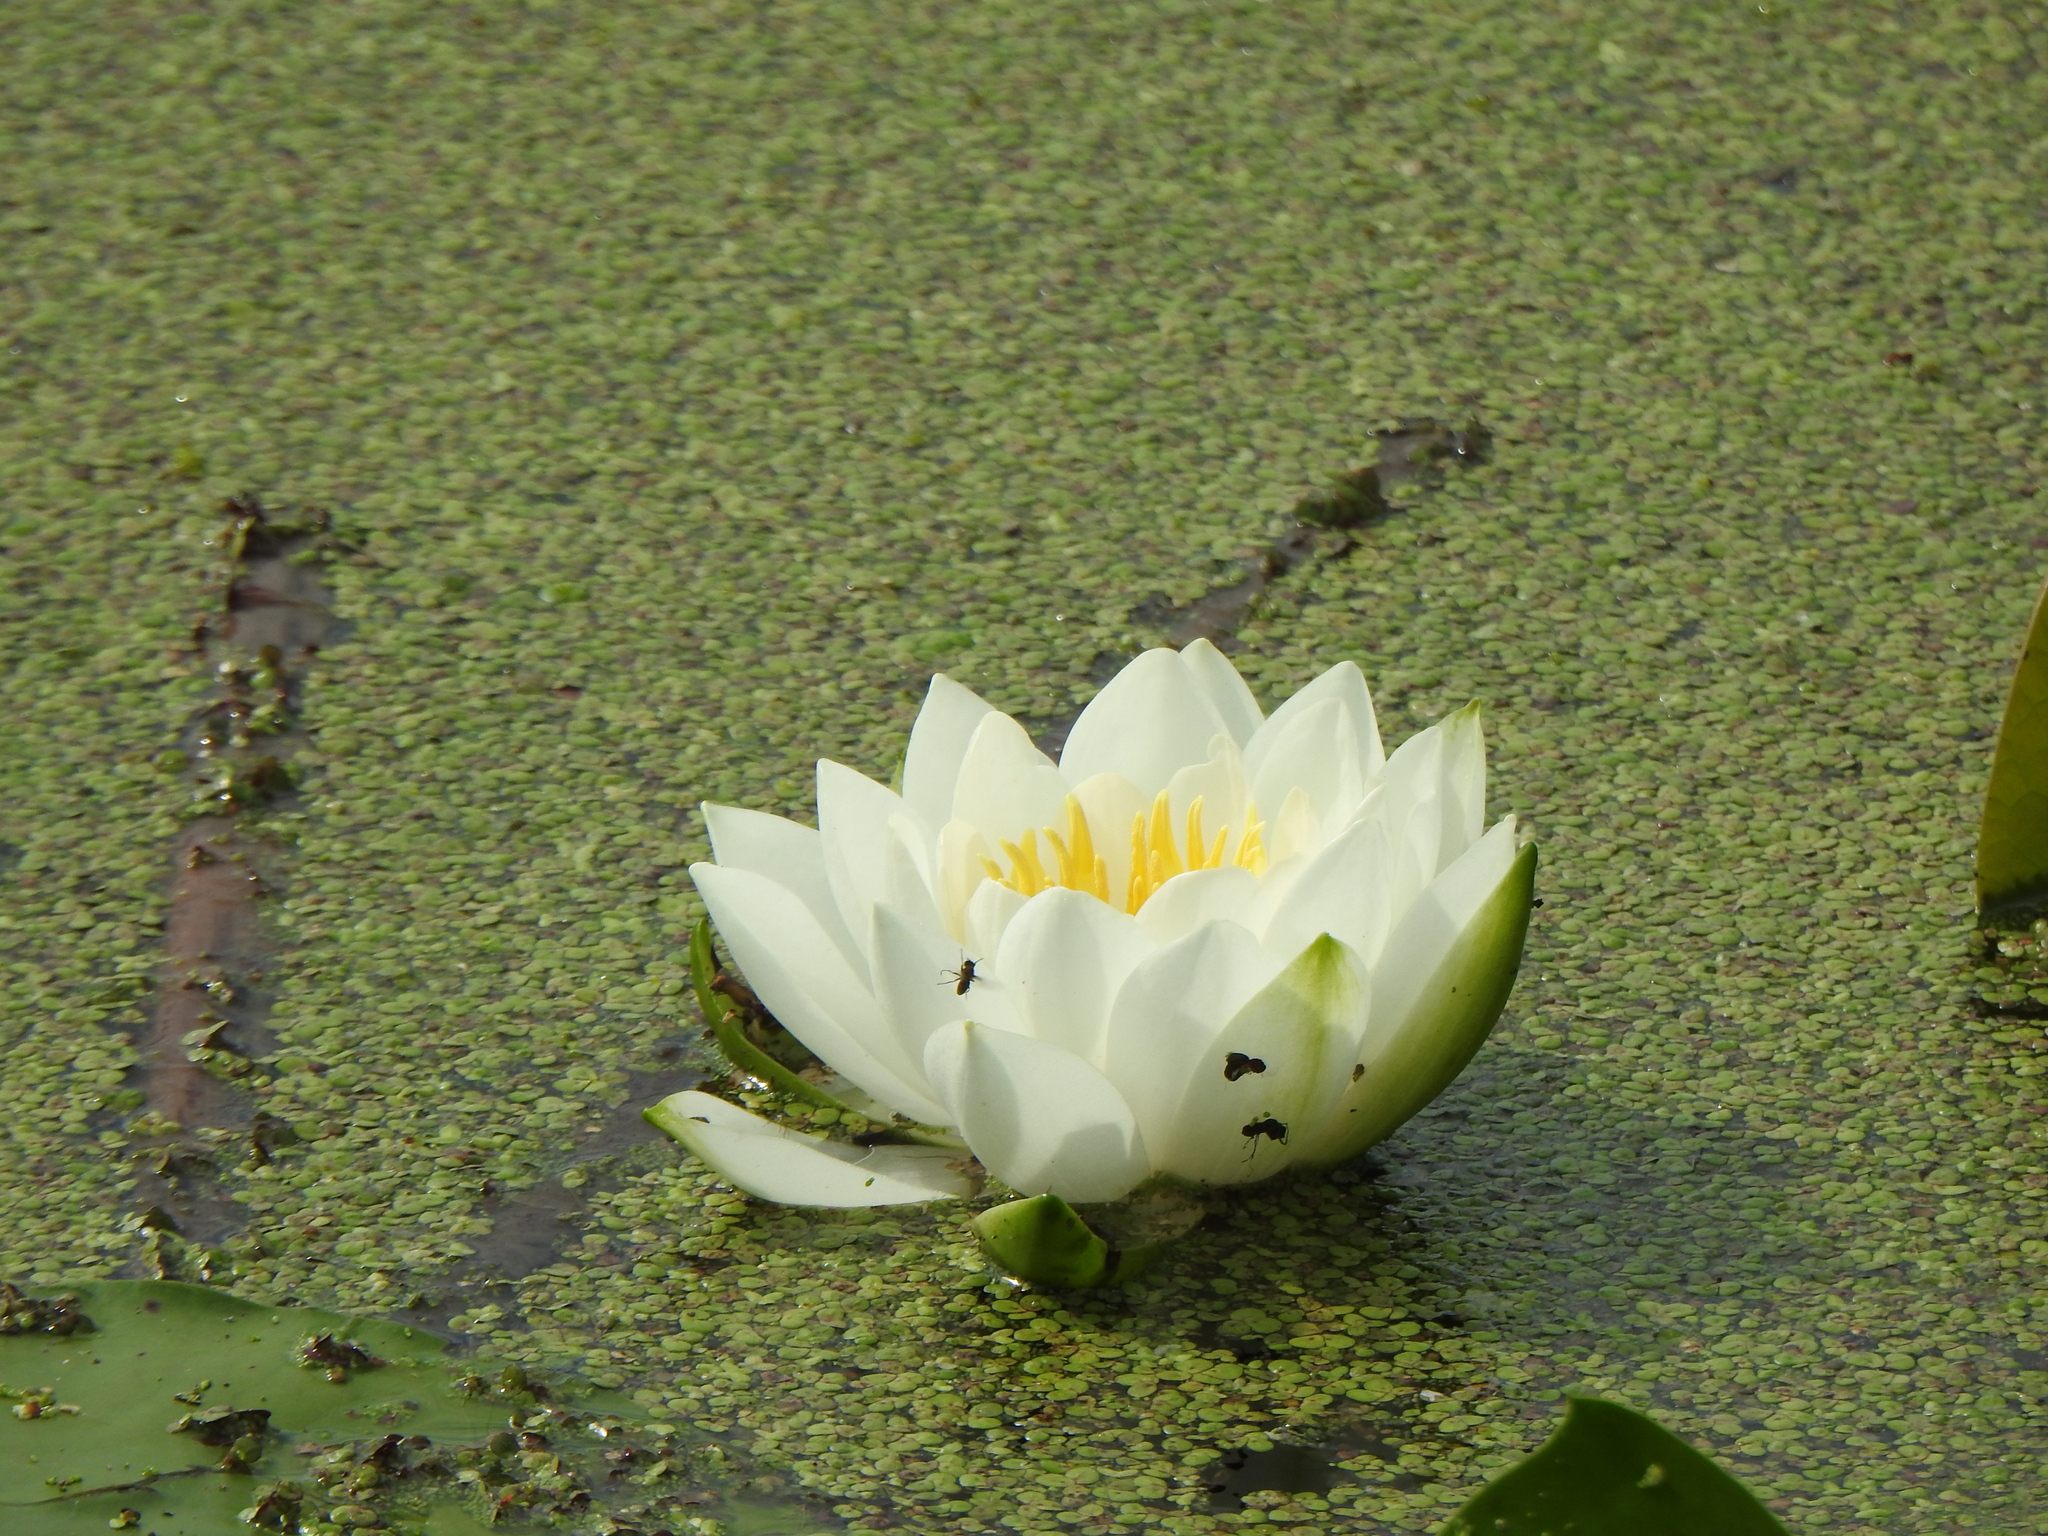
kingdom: Plantae
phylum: Tracheophyta
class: Magnoliopsida
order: Nymphaeales
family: Nymphaeaceae
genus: Nymphaea
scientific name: Nymphaea odorata
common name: Fragrant water-lily
